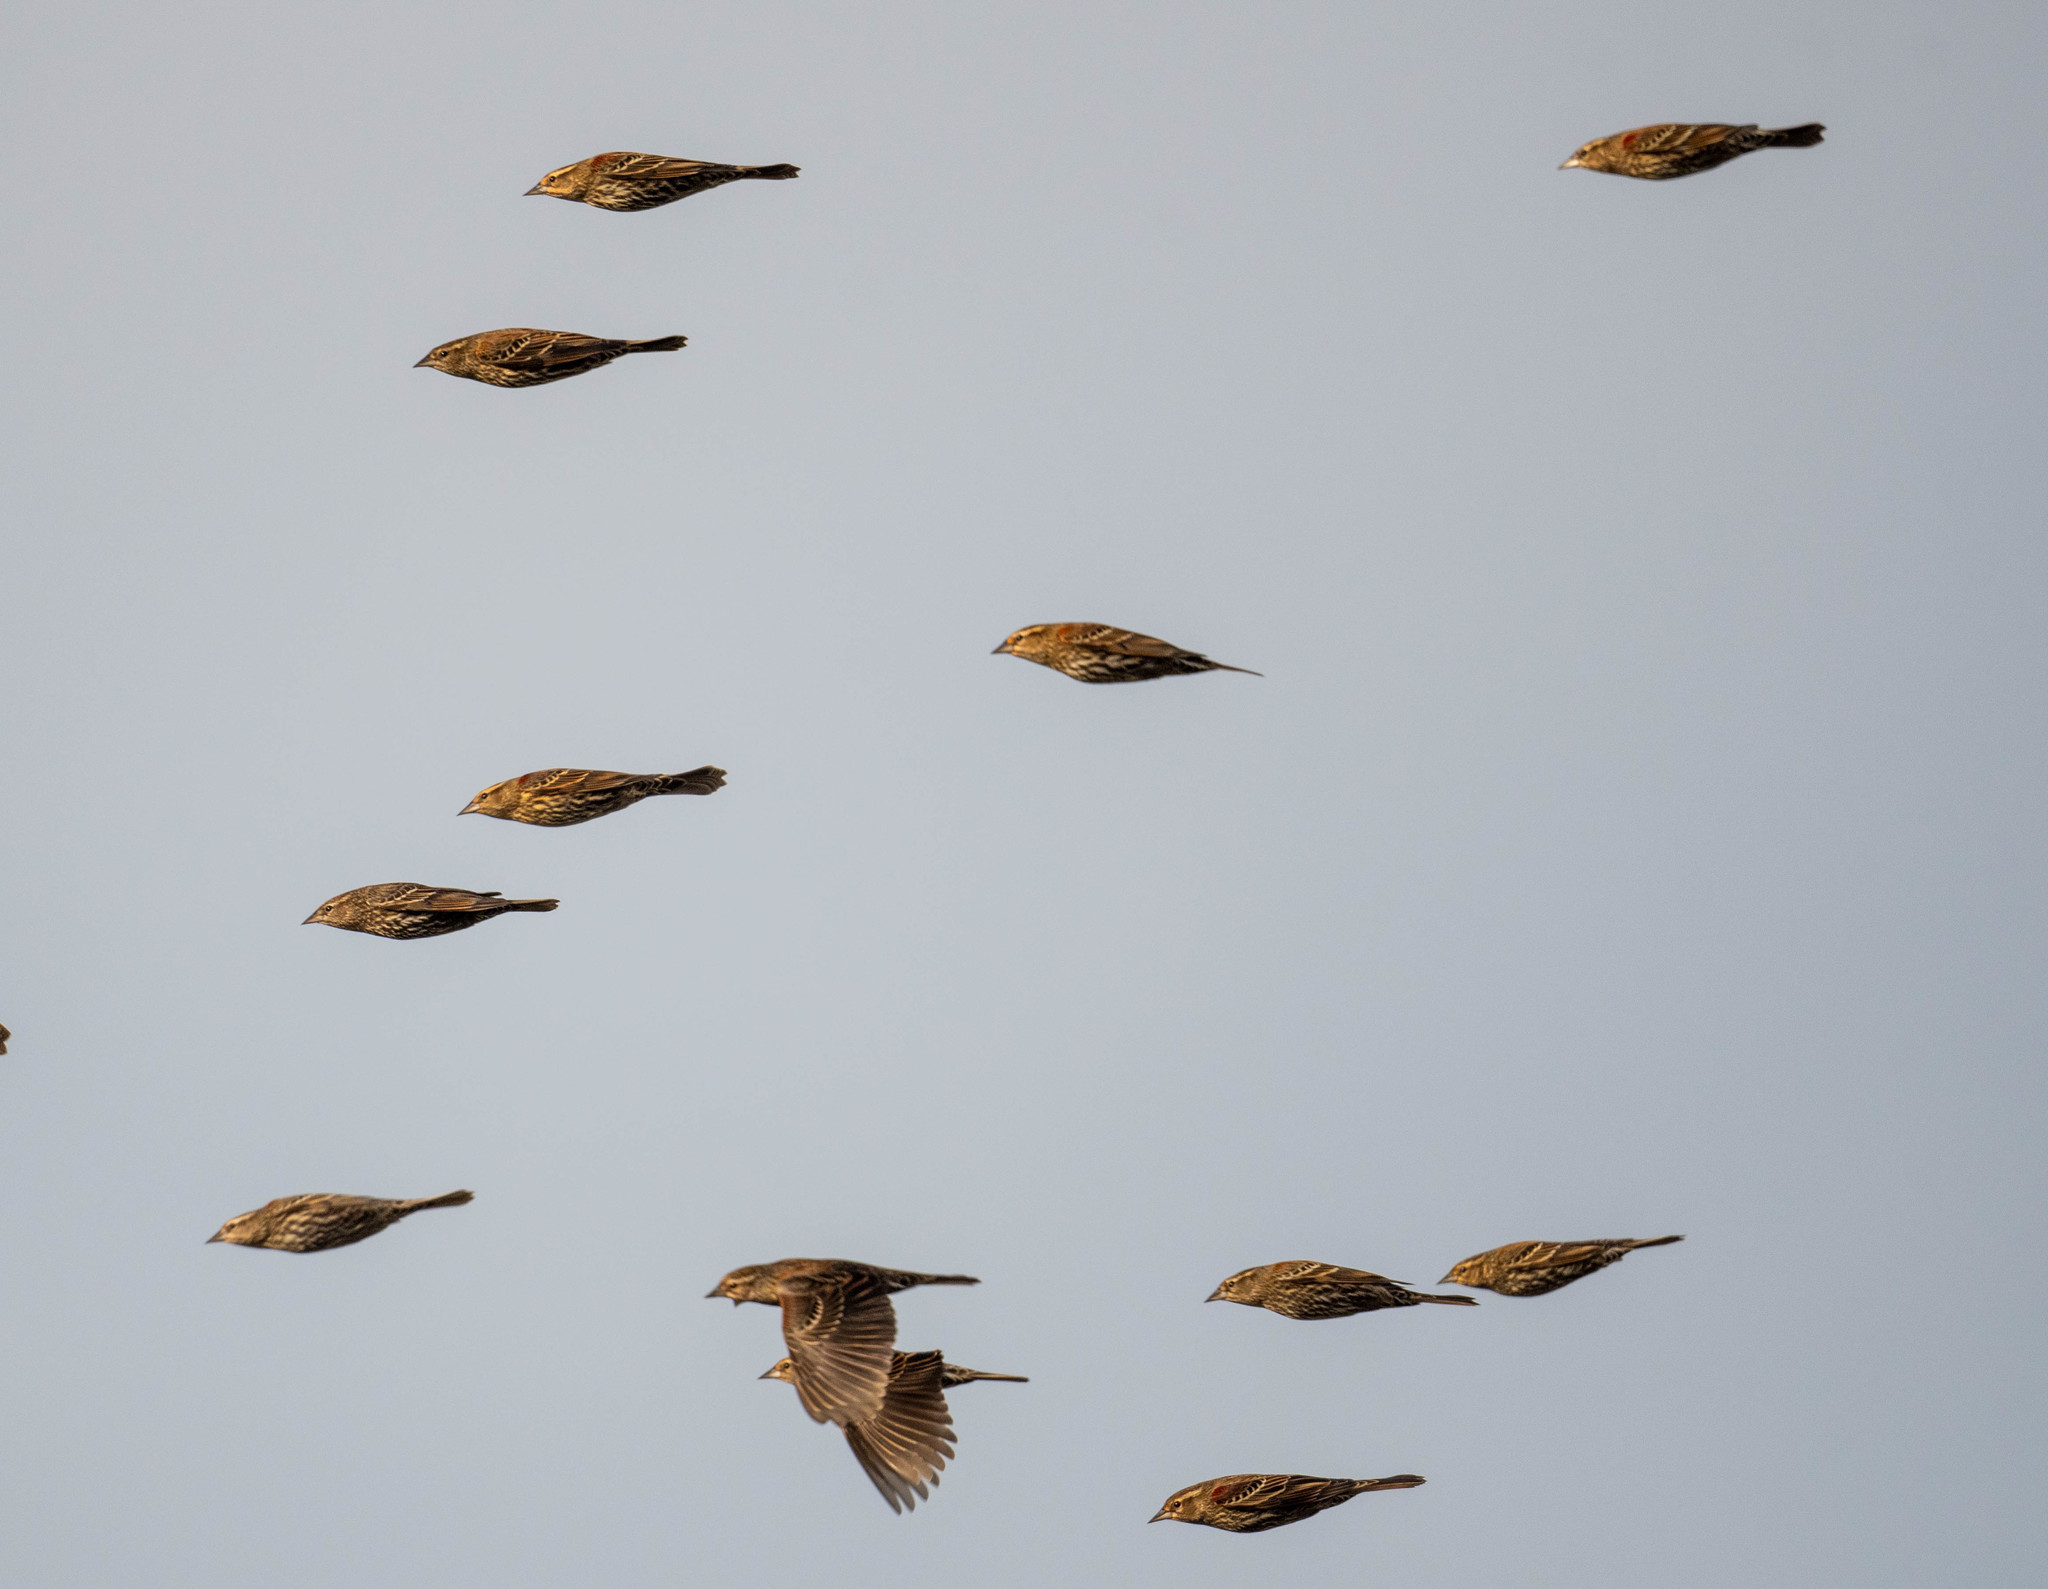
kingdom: Animalia
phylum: Chordata
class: Aves
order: Passeriformes
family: Icteridae
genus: Agelaius
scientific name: Agelaius phoeniceus
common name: Red-winged blackbird
